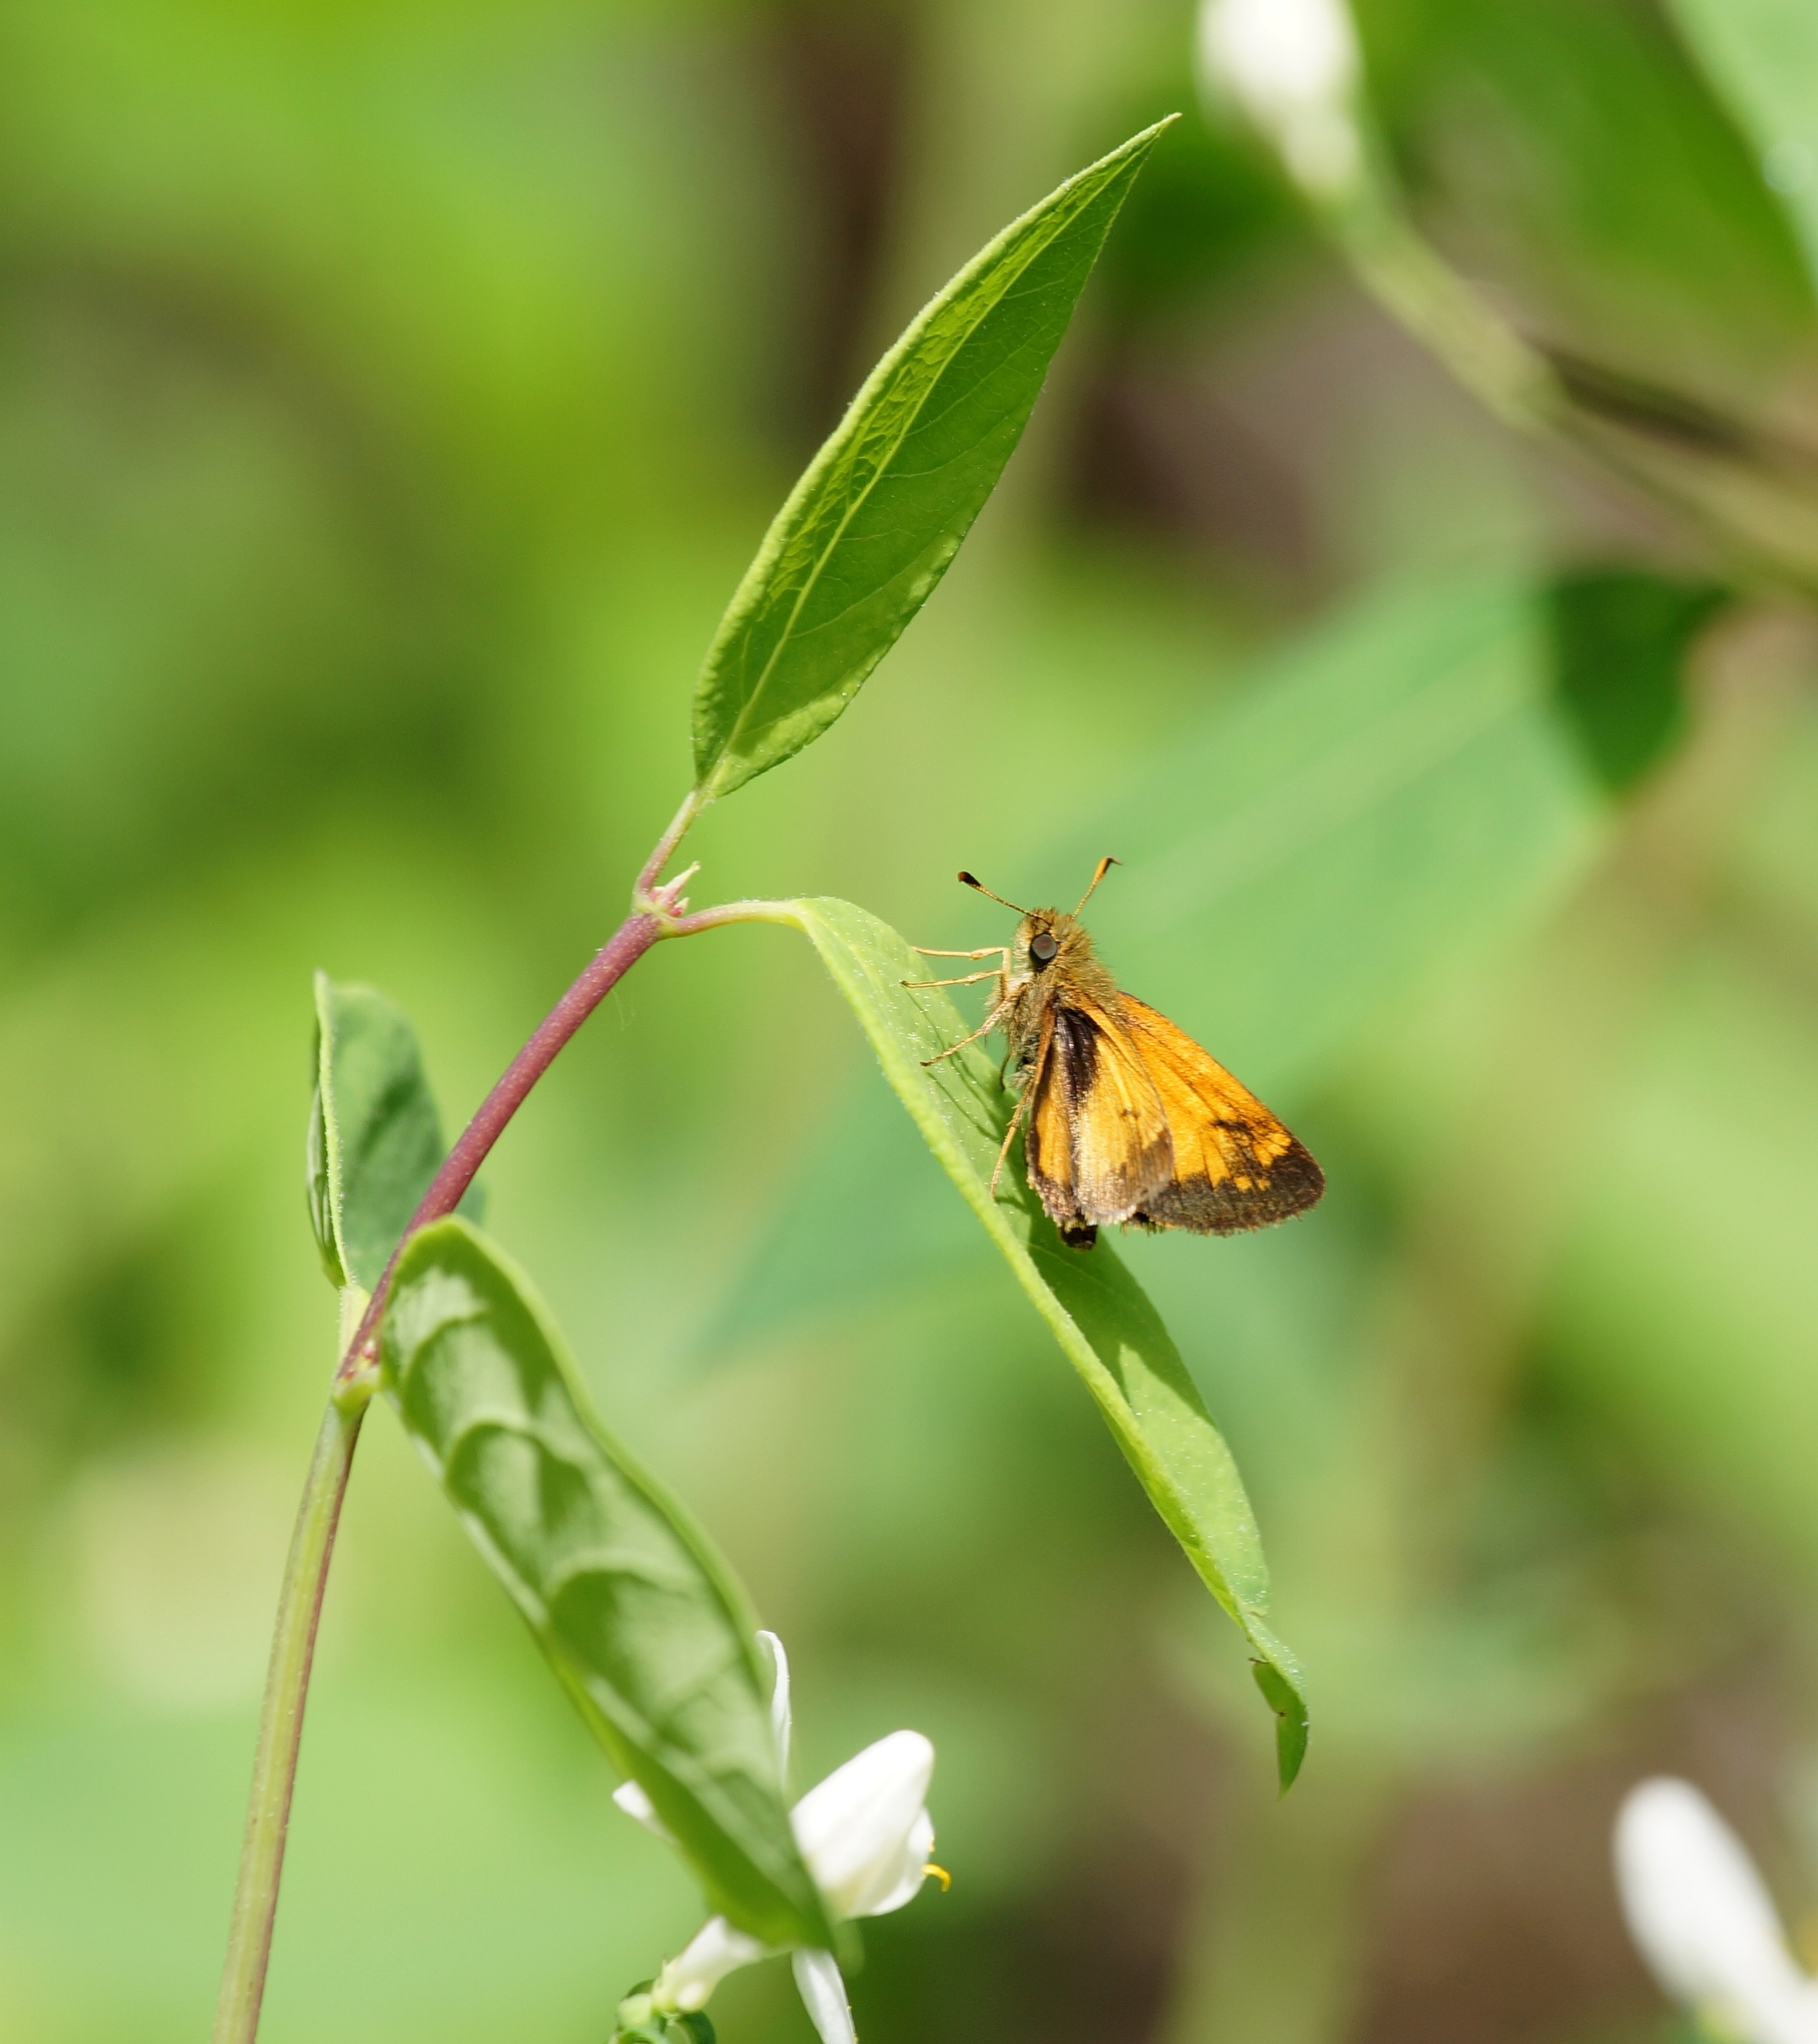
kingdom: Animalia
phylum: Arthropoda
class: Insecta
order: Lepidoptera
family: Hesperiidae
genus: Lon
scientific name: Lon hobomok
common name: Hobomok skipper
